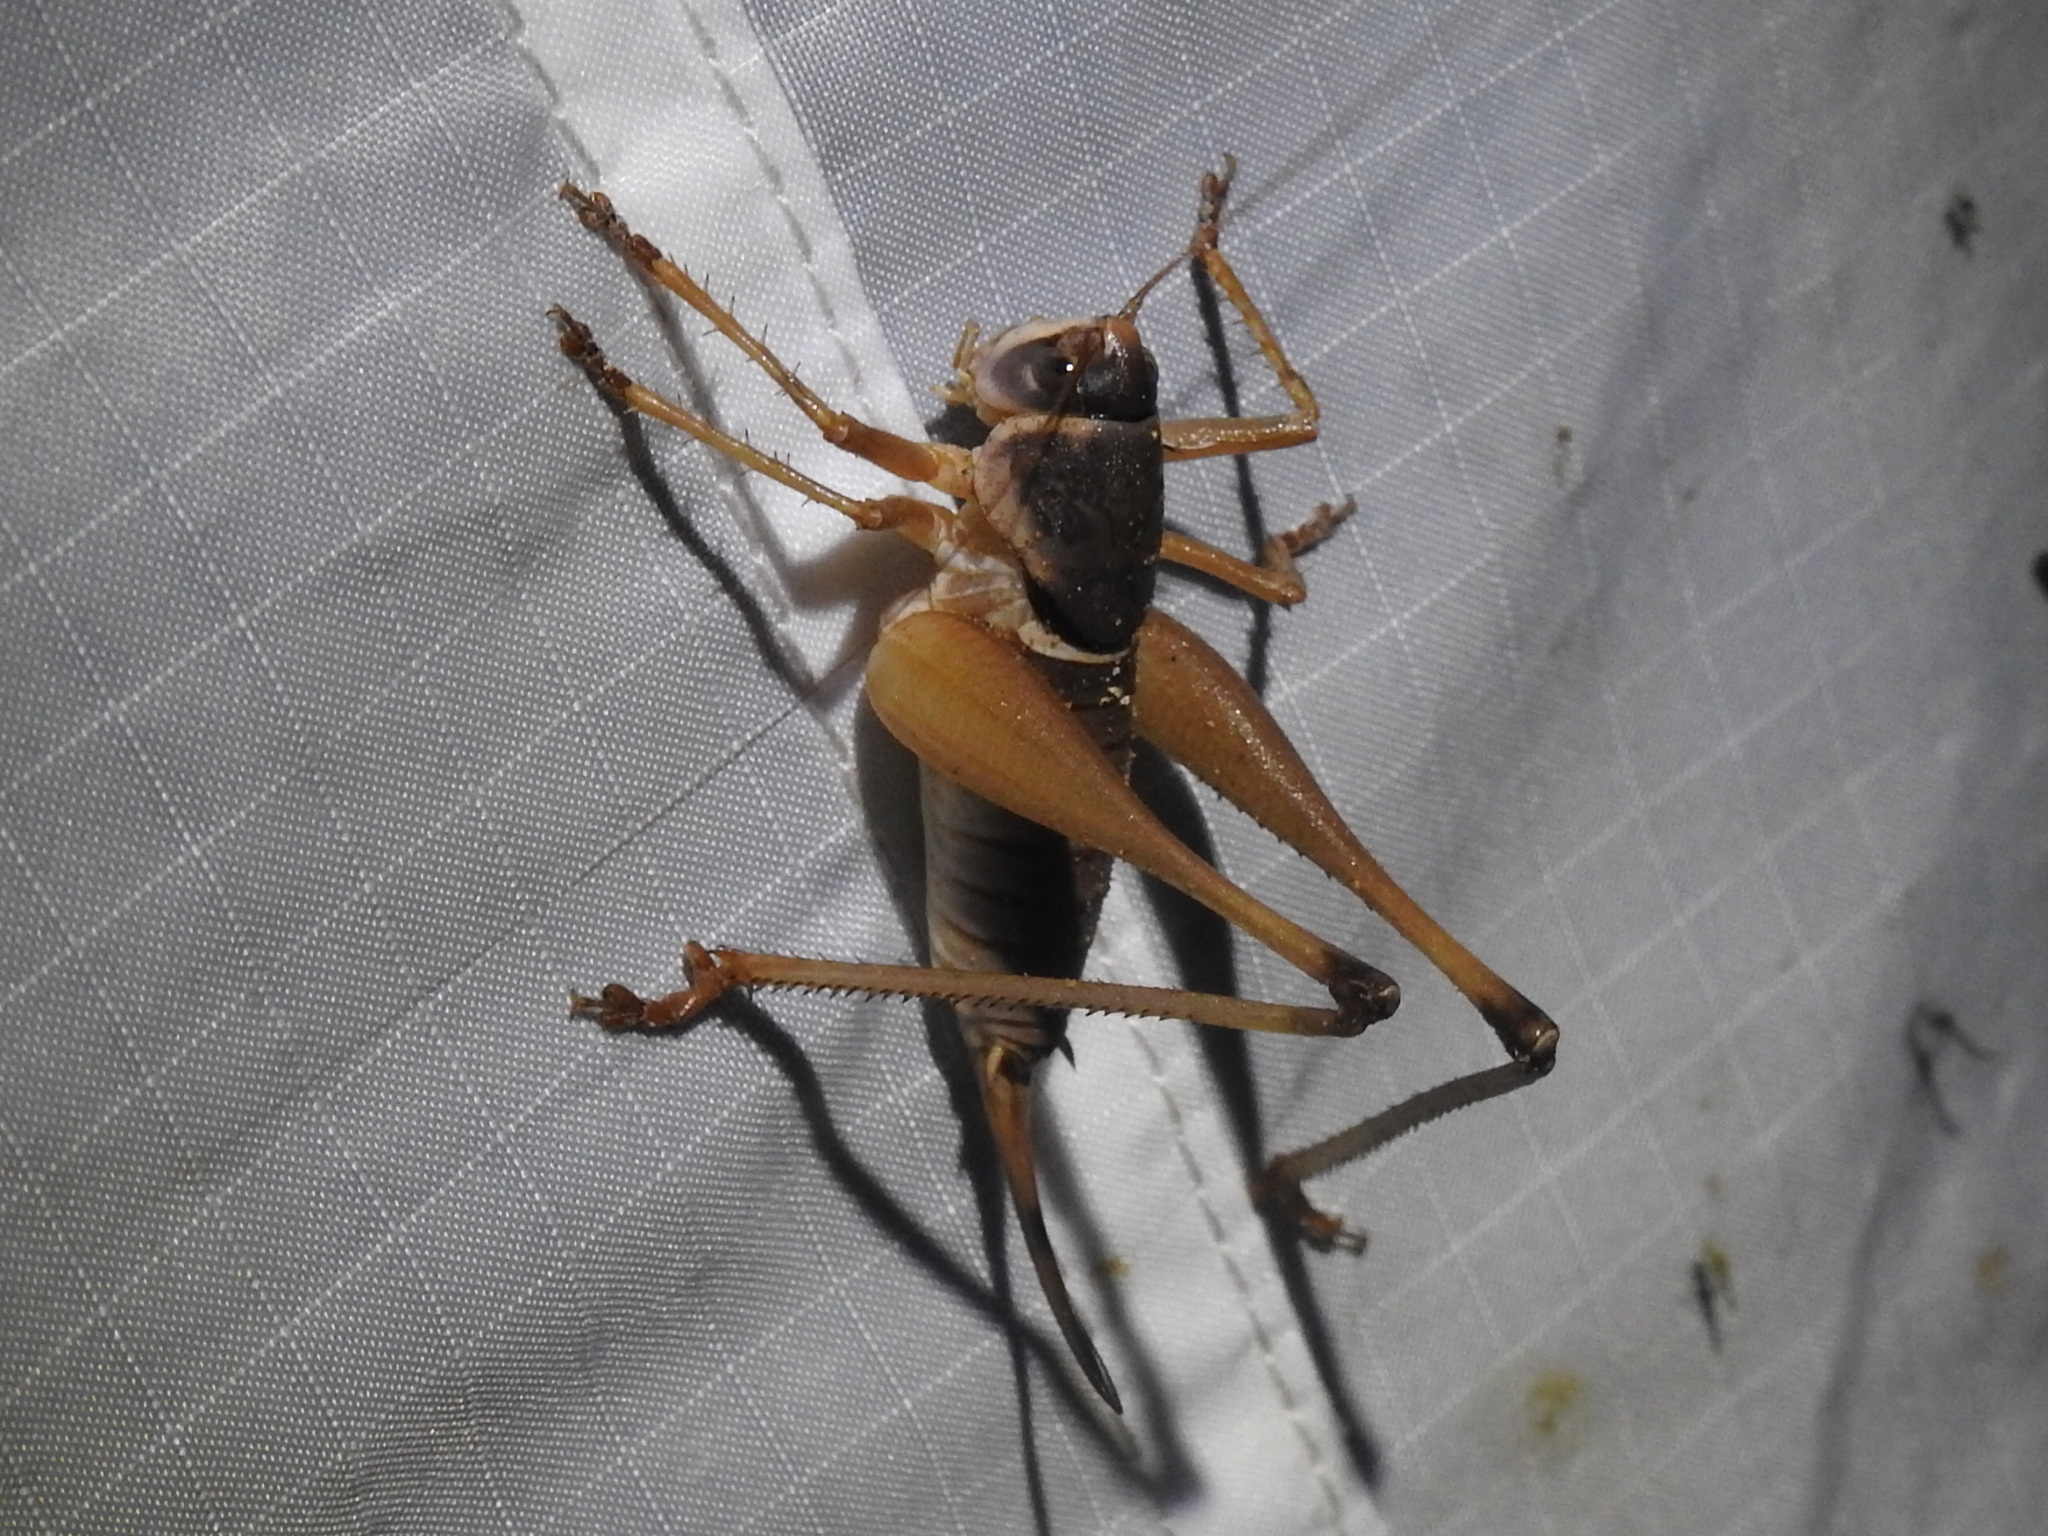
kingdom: Animalia
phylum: Arthropoda
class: Insecta
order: Orthoptera
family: Tettigoniidae
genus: Pediodectes
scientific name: Pediodectes bruneri
